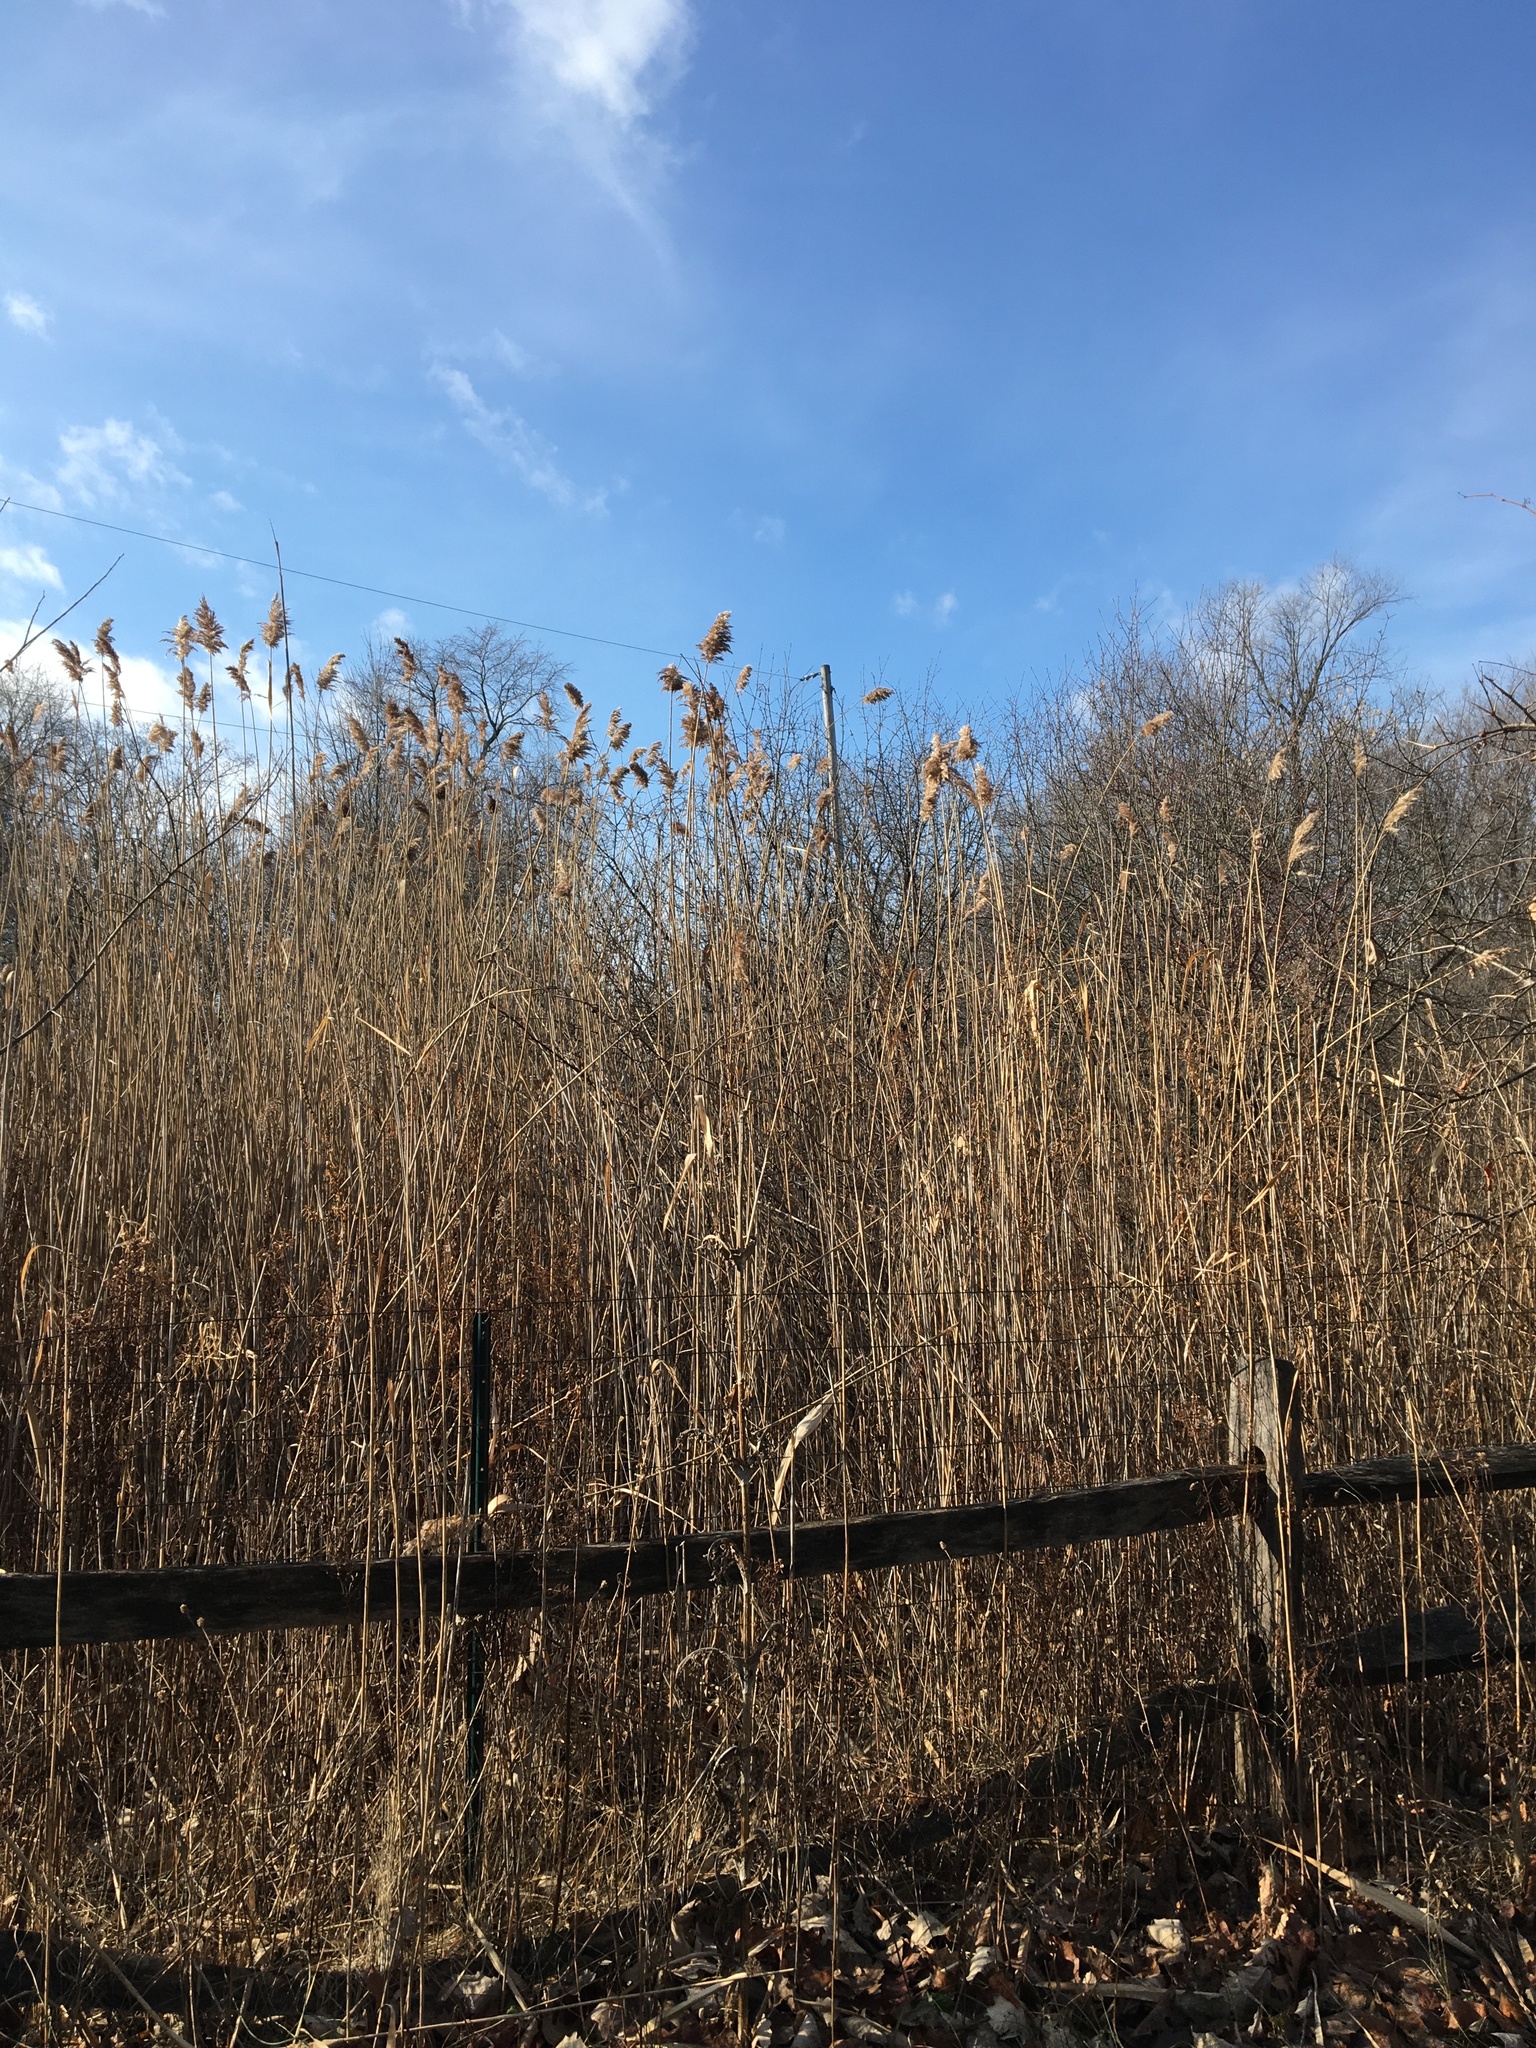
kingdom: Plantae
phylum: Tracheophyta
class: Liliopsida
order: Poales
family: Poaceae
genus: Phragmites
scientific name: Phragmites australis
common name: Common reed
